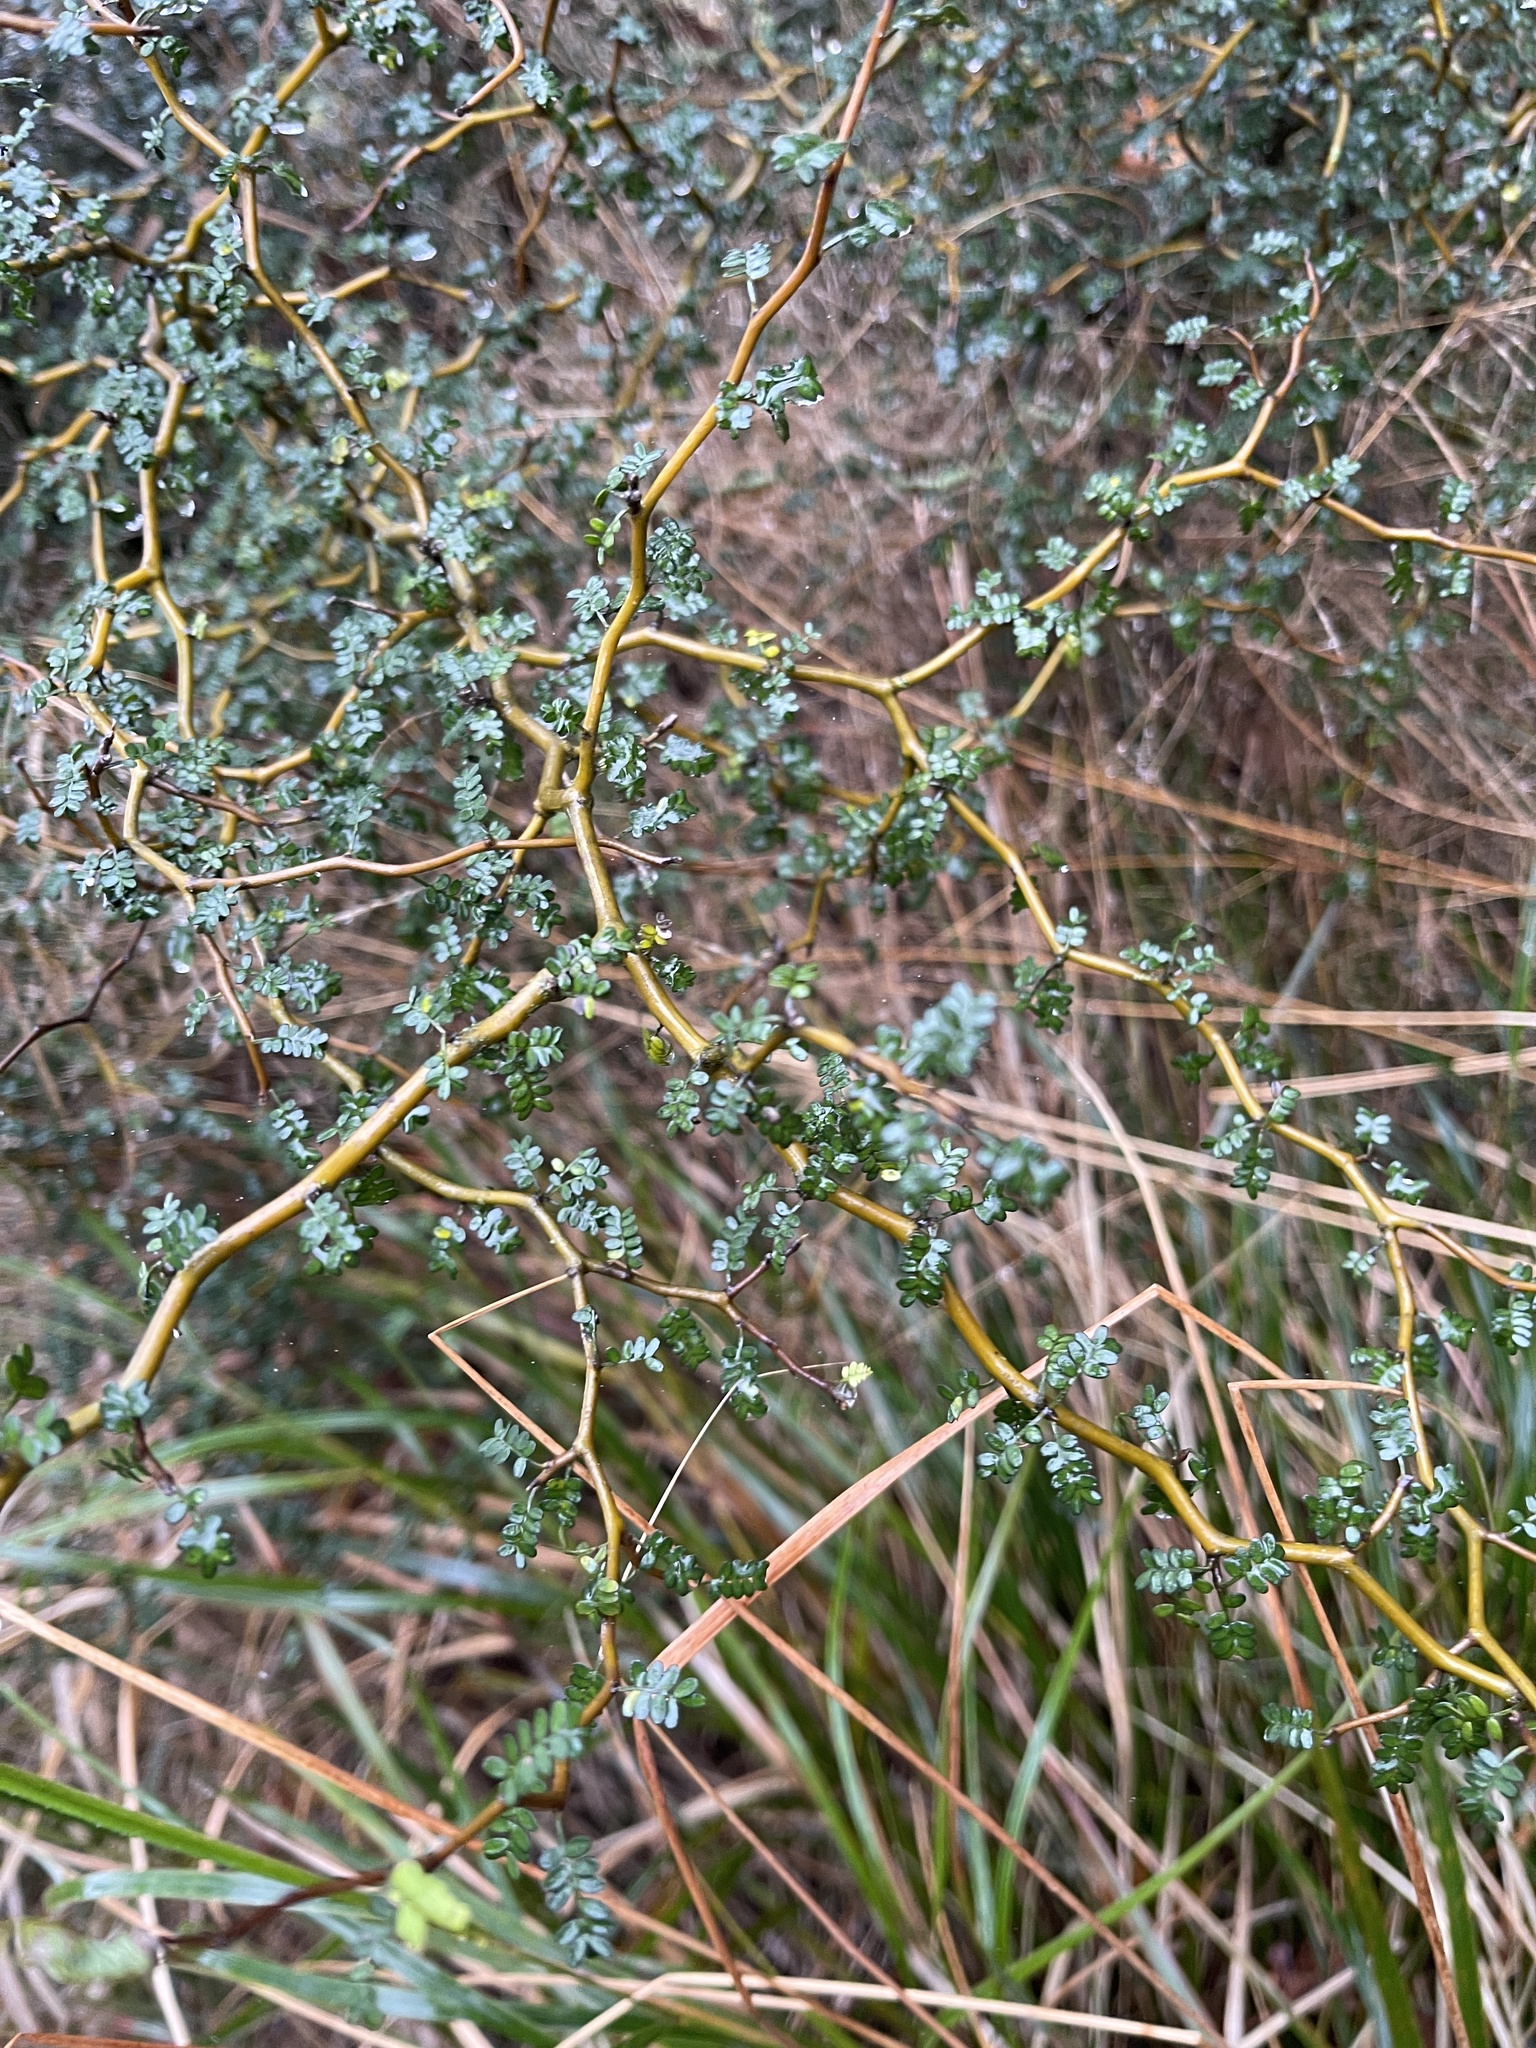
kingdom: Plantae
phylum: Tracheophyta
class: Magnoliopsida
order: Fabales
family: Fabaceae
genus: Sophora
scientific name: Sophora prostrata
